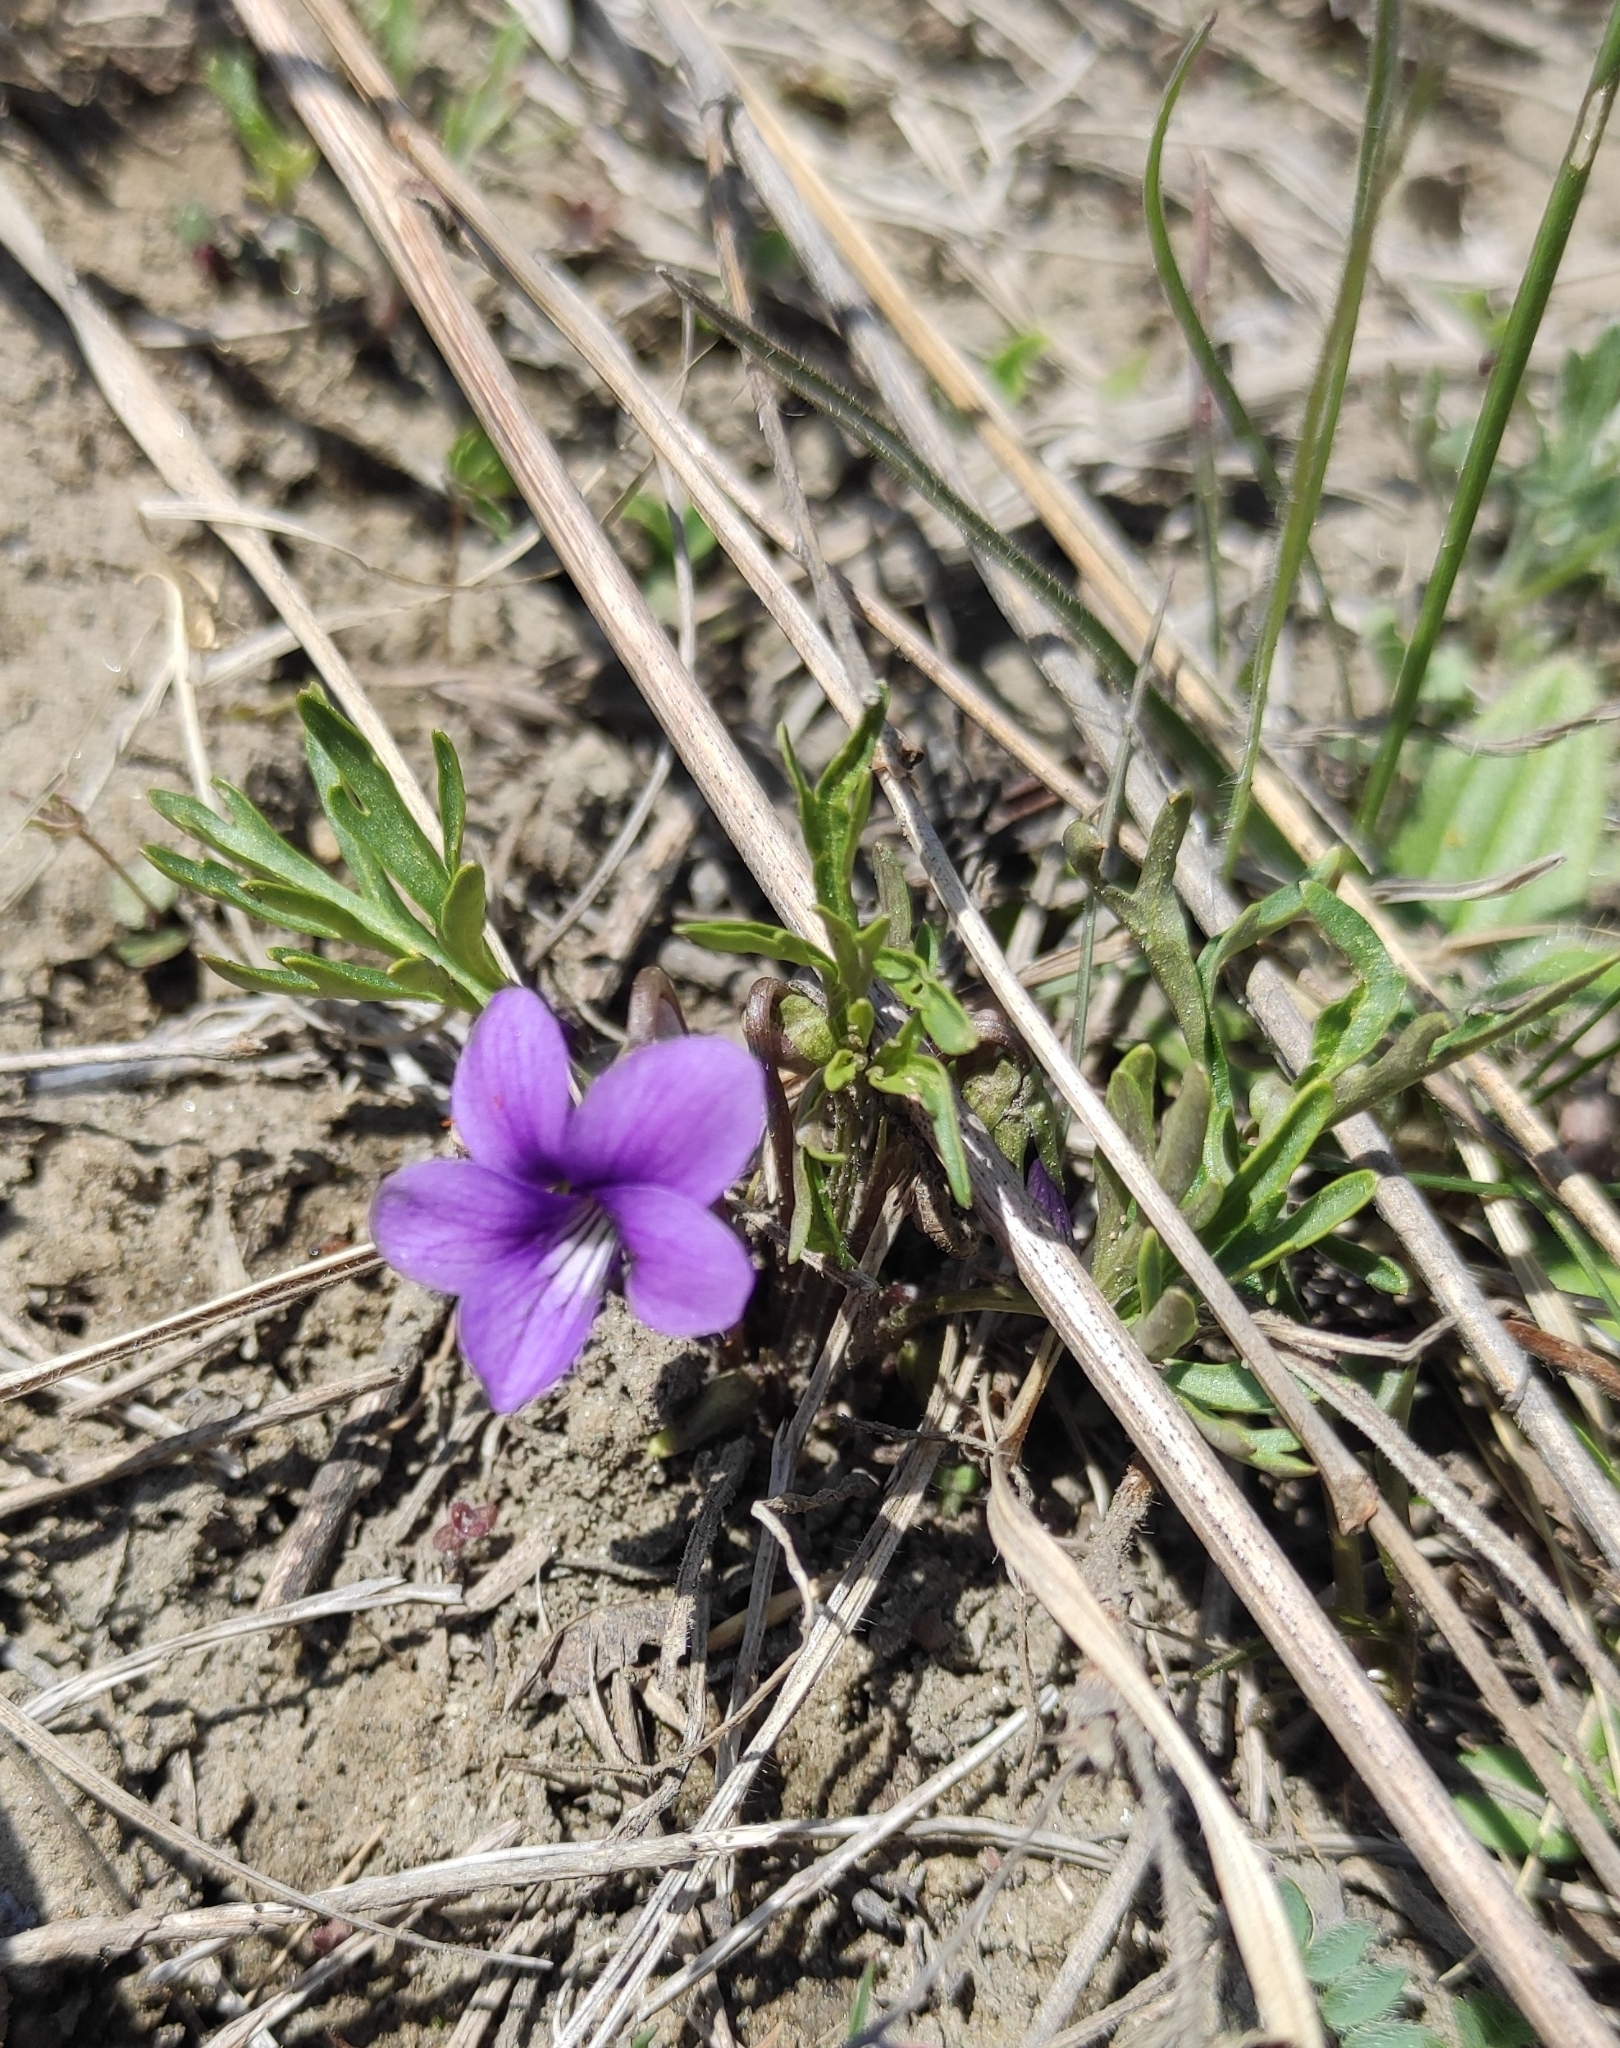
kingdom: Plantae
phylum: Tracheophyta
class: Magnoliopsida
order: Malpighiales
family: Violaceae
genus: Viola
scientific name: Viola multifida
